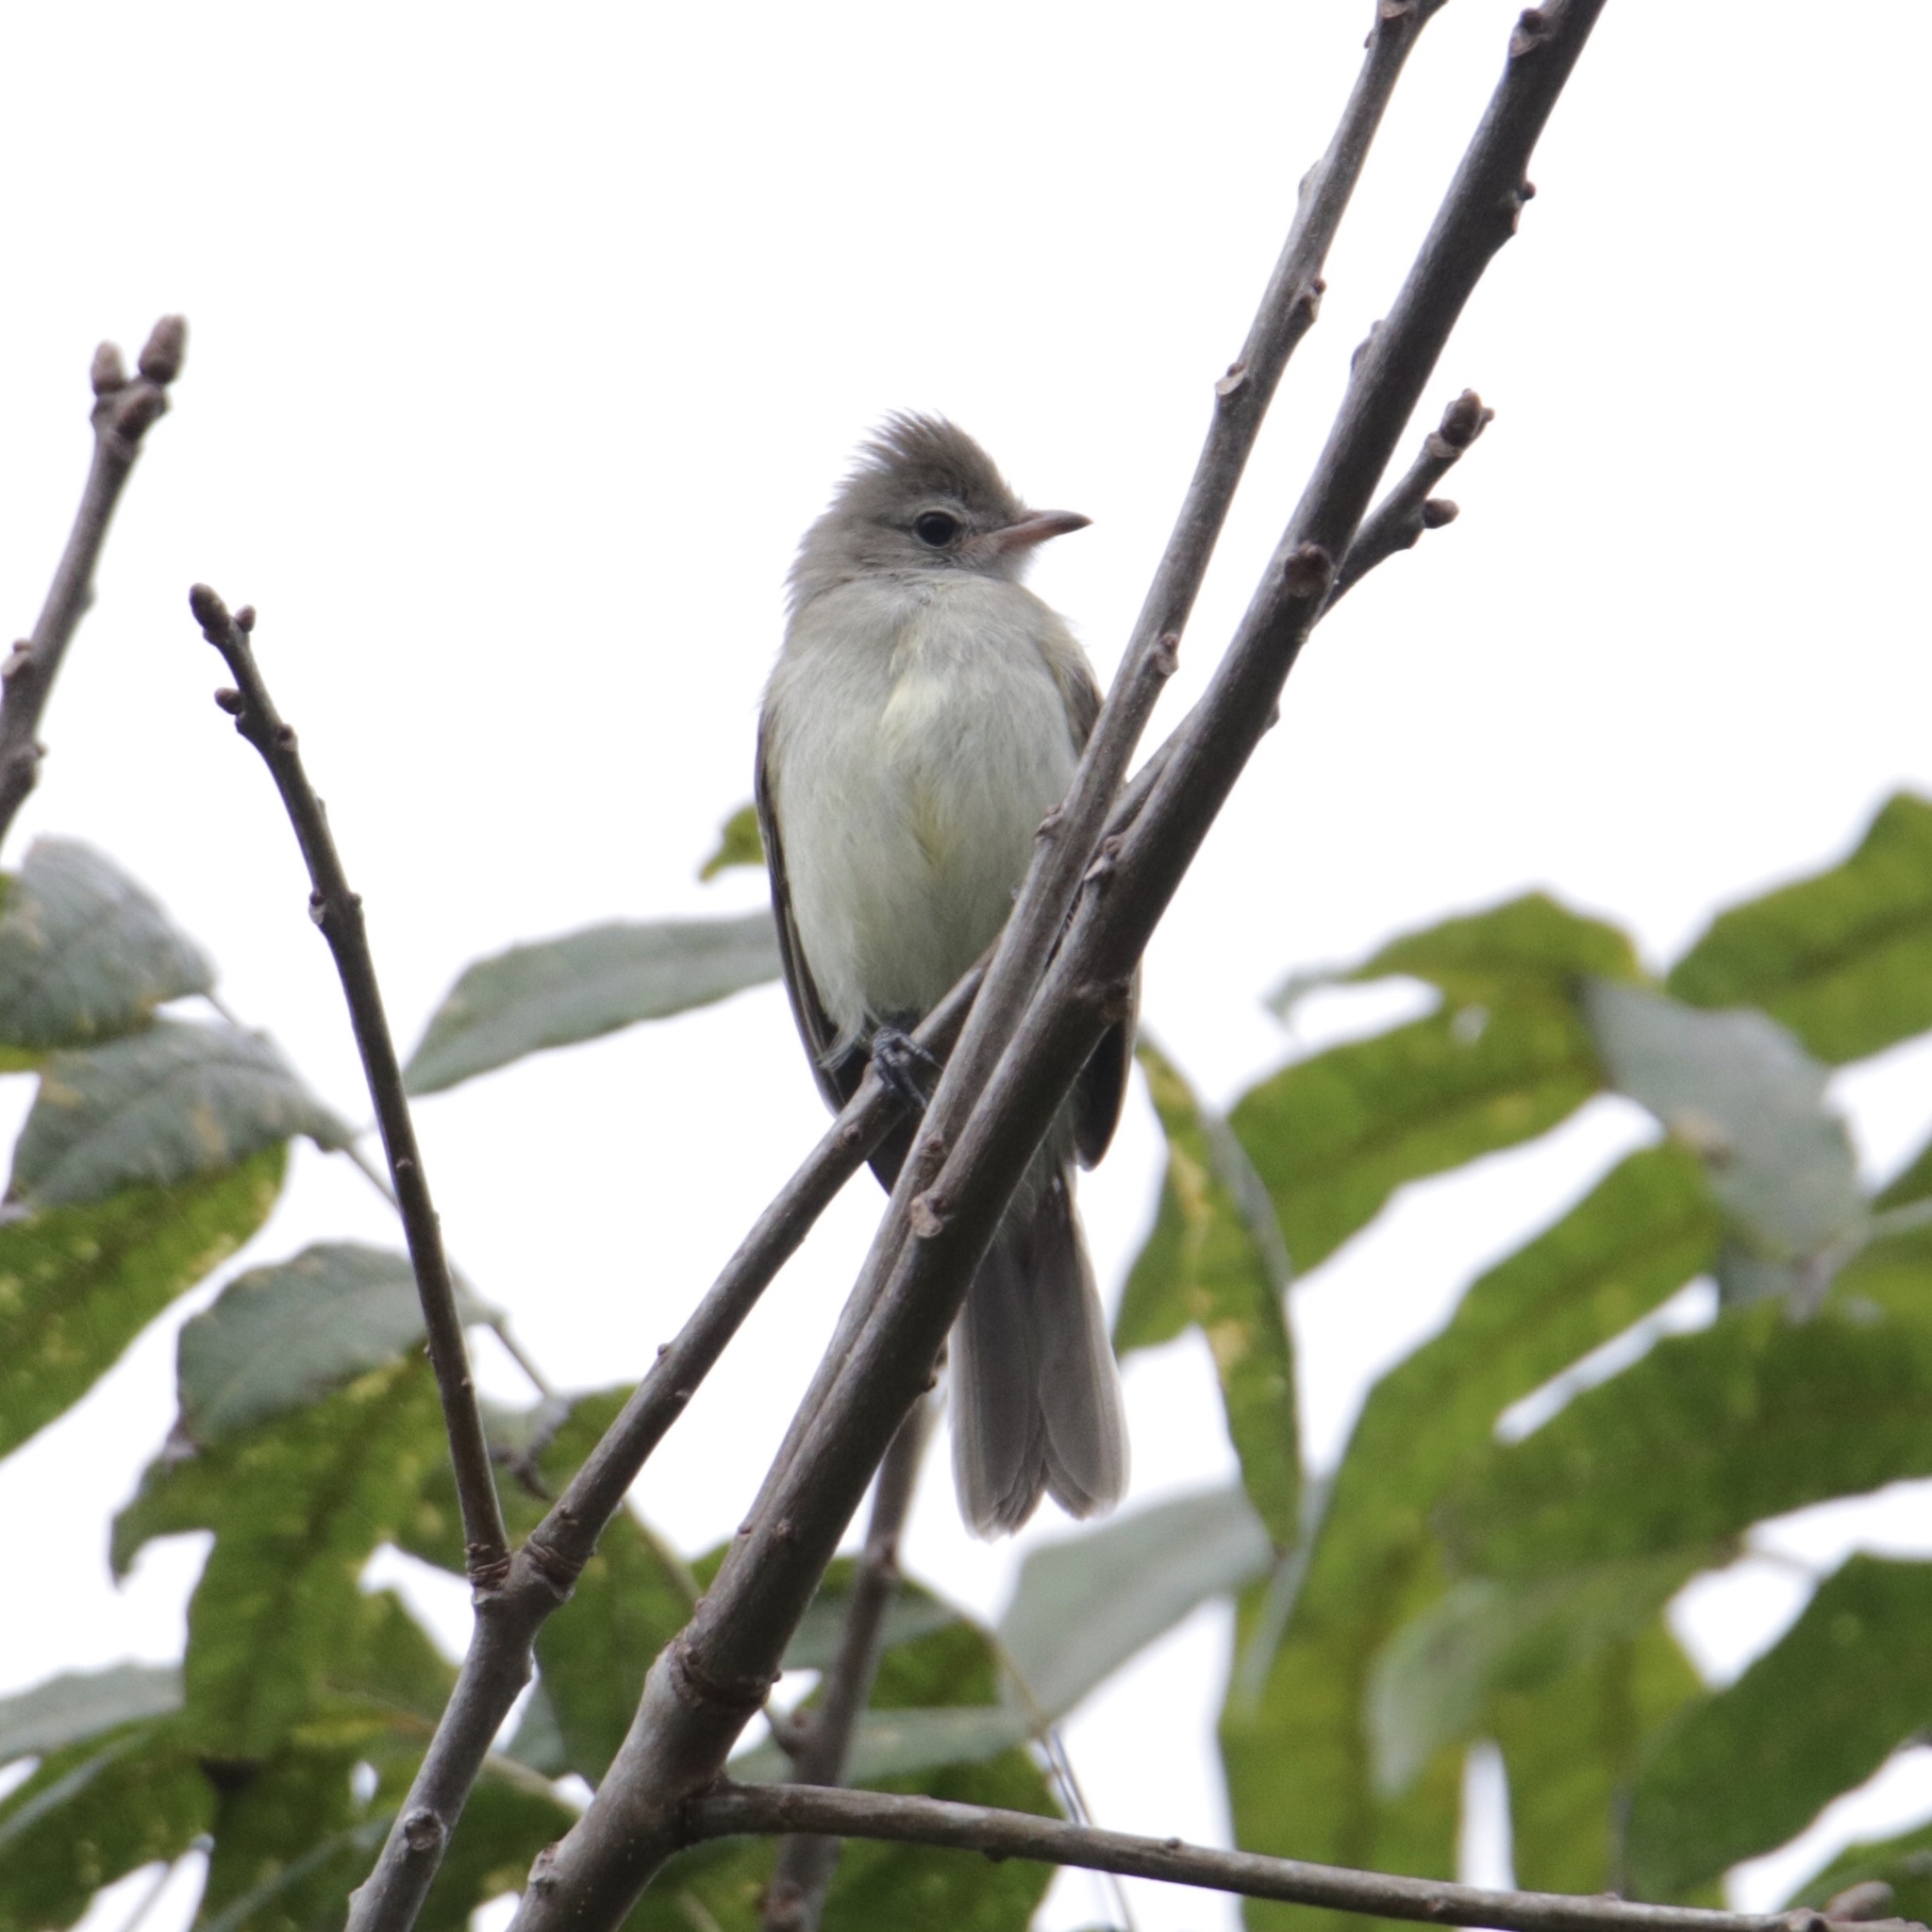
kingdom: Animalia
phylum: Chordata
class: Aves
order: Passeriformes
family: Tyrannidae
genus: Elaenia
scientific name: Elaenia flavogaster
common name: Yellow-bellied elaenia
